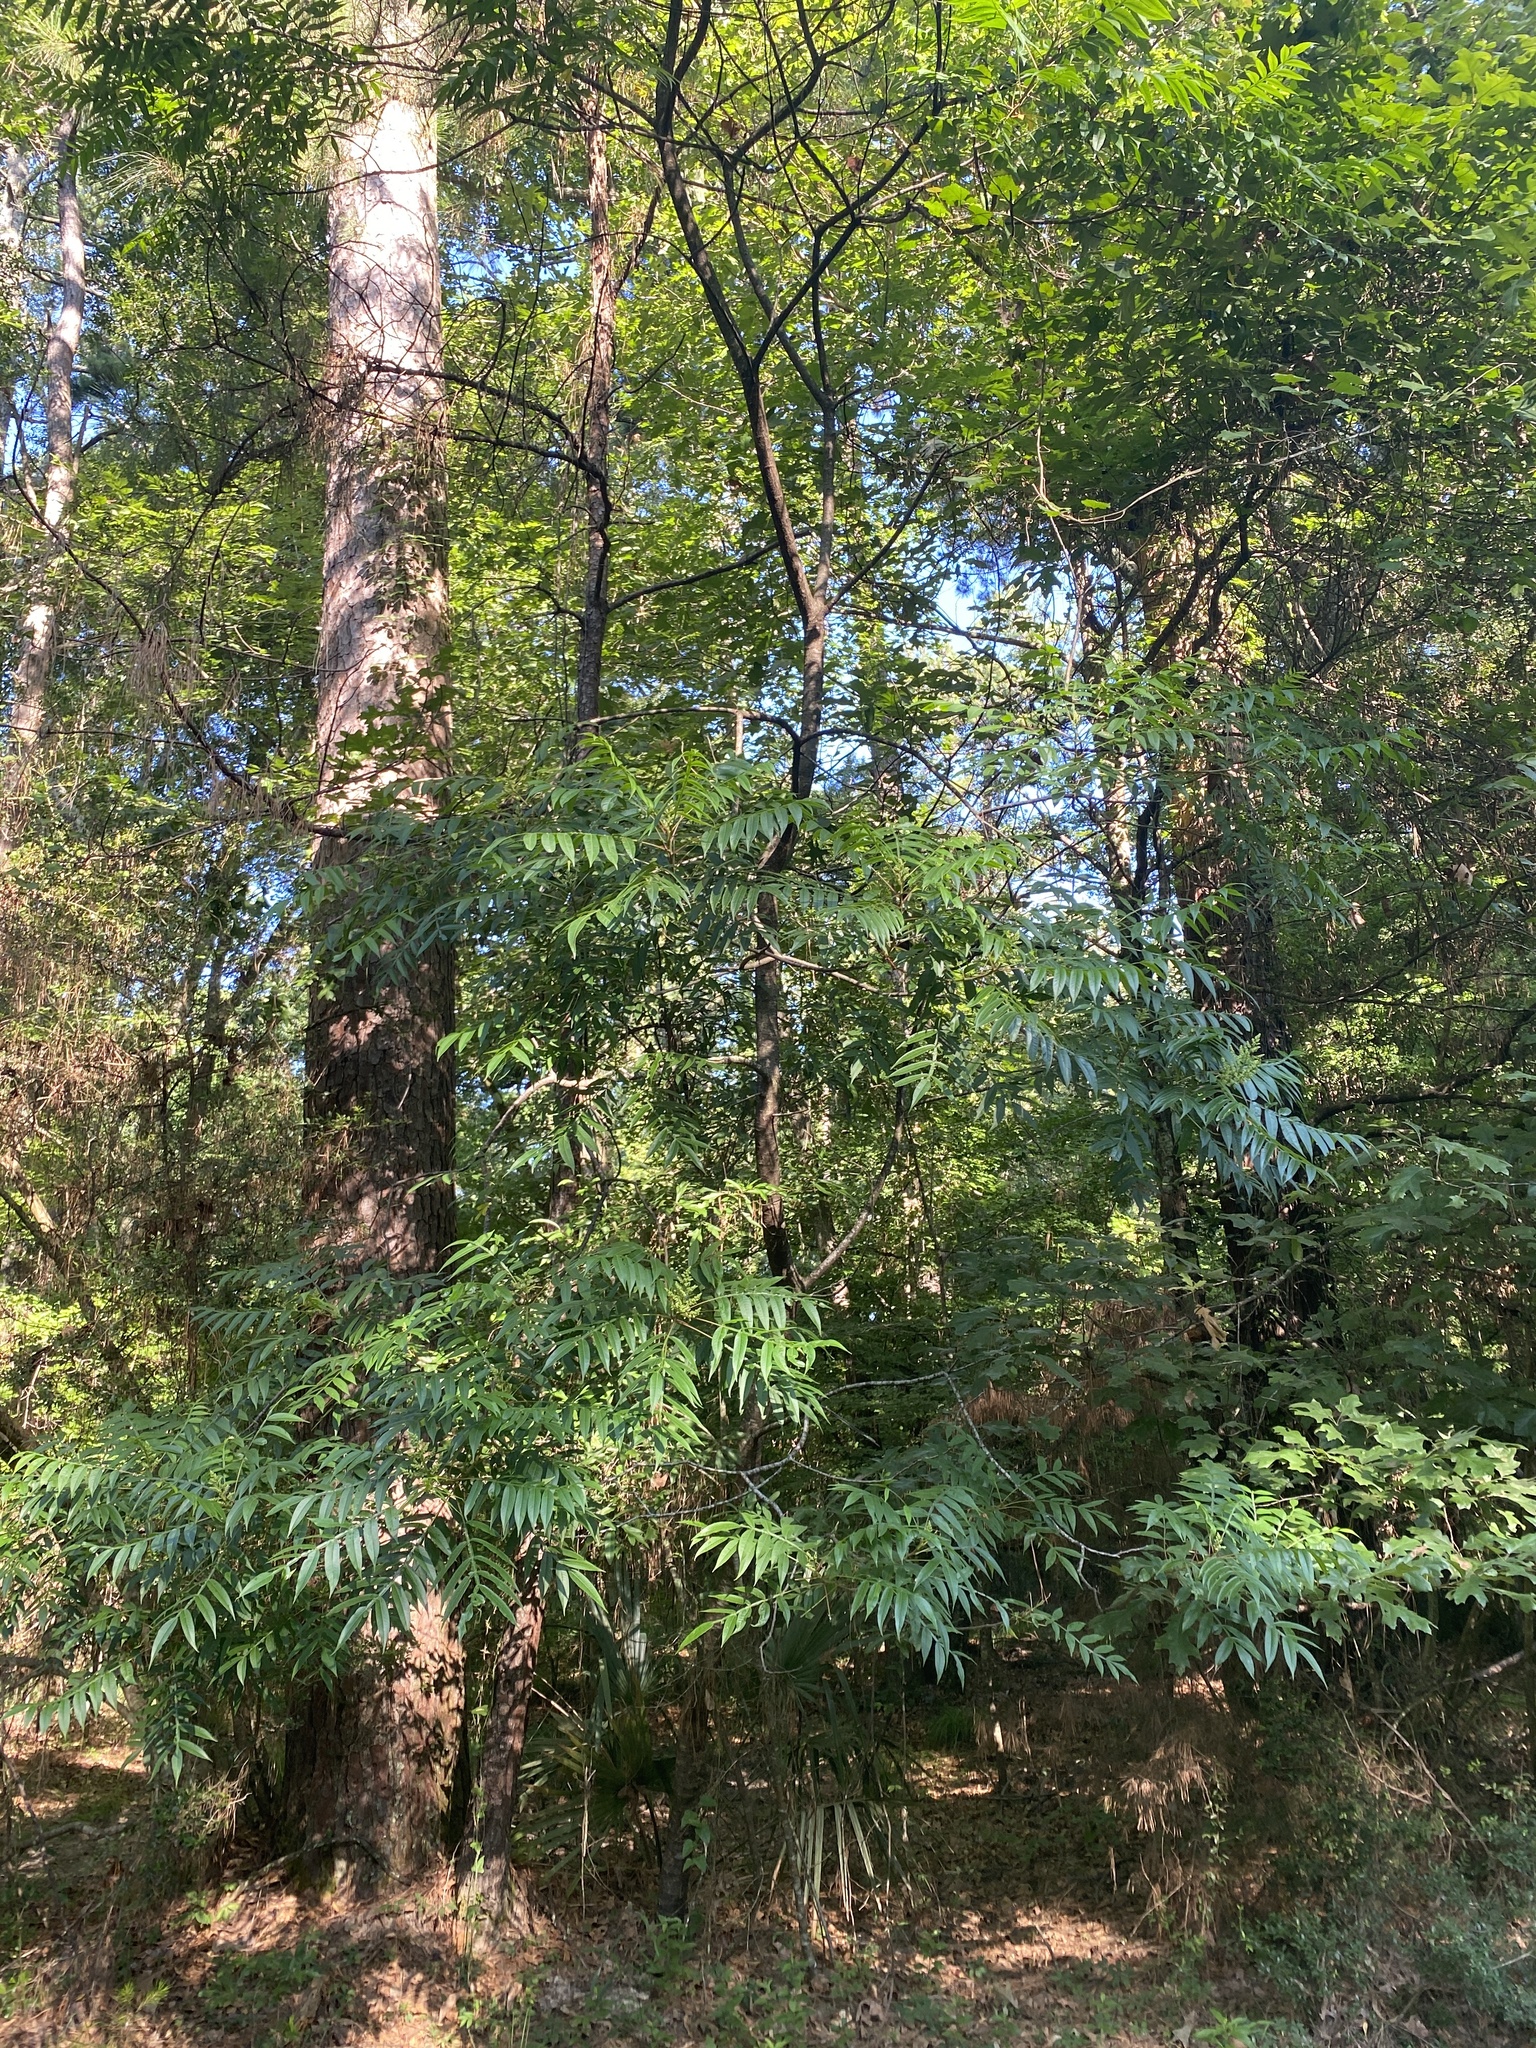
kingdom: Plantae
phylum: Tracheophyta
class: Magnoliopsida
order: Sapindales
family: Anacardiaceae
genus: Rhus
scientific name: Rhus copallina
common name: Shining sumac
